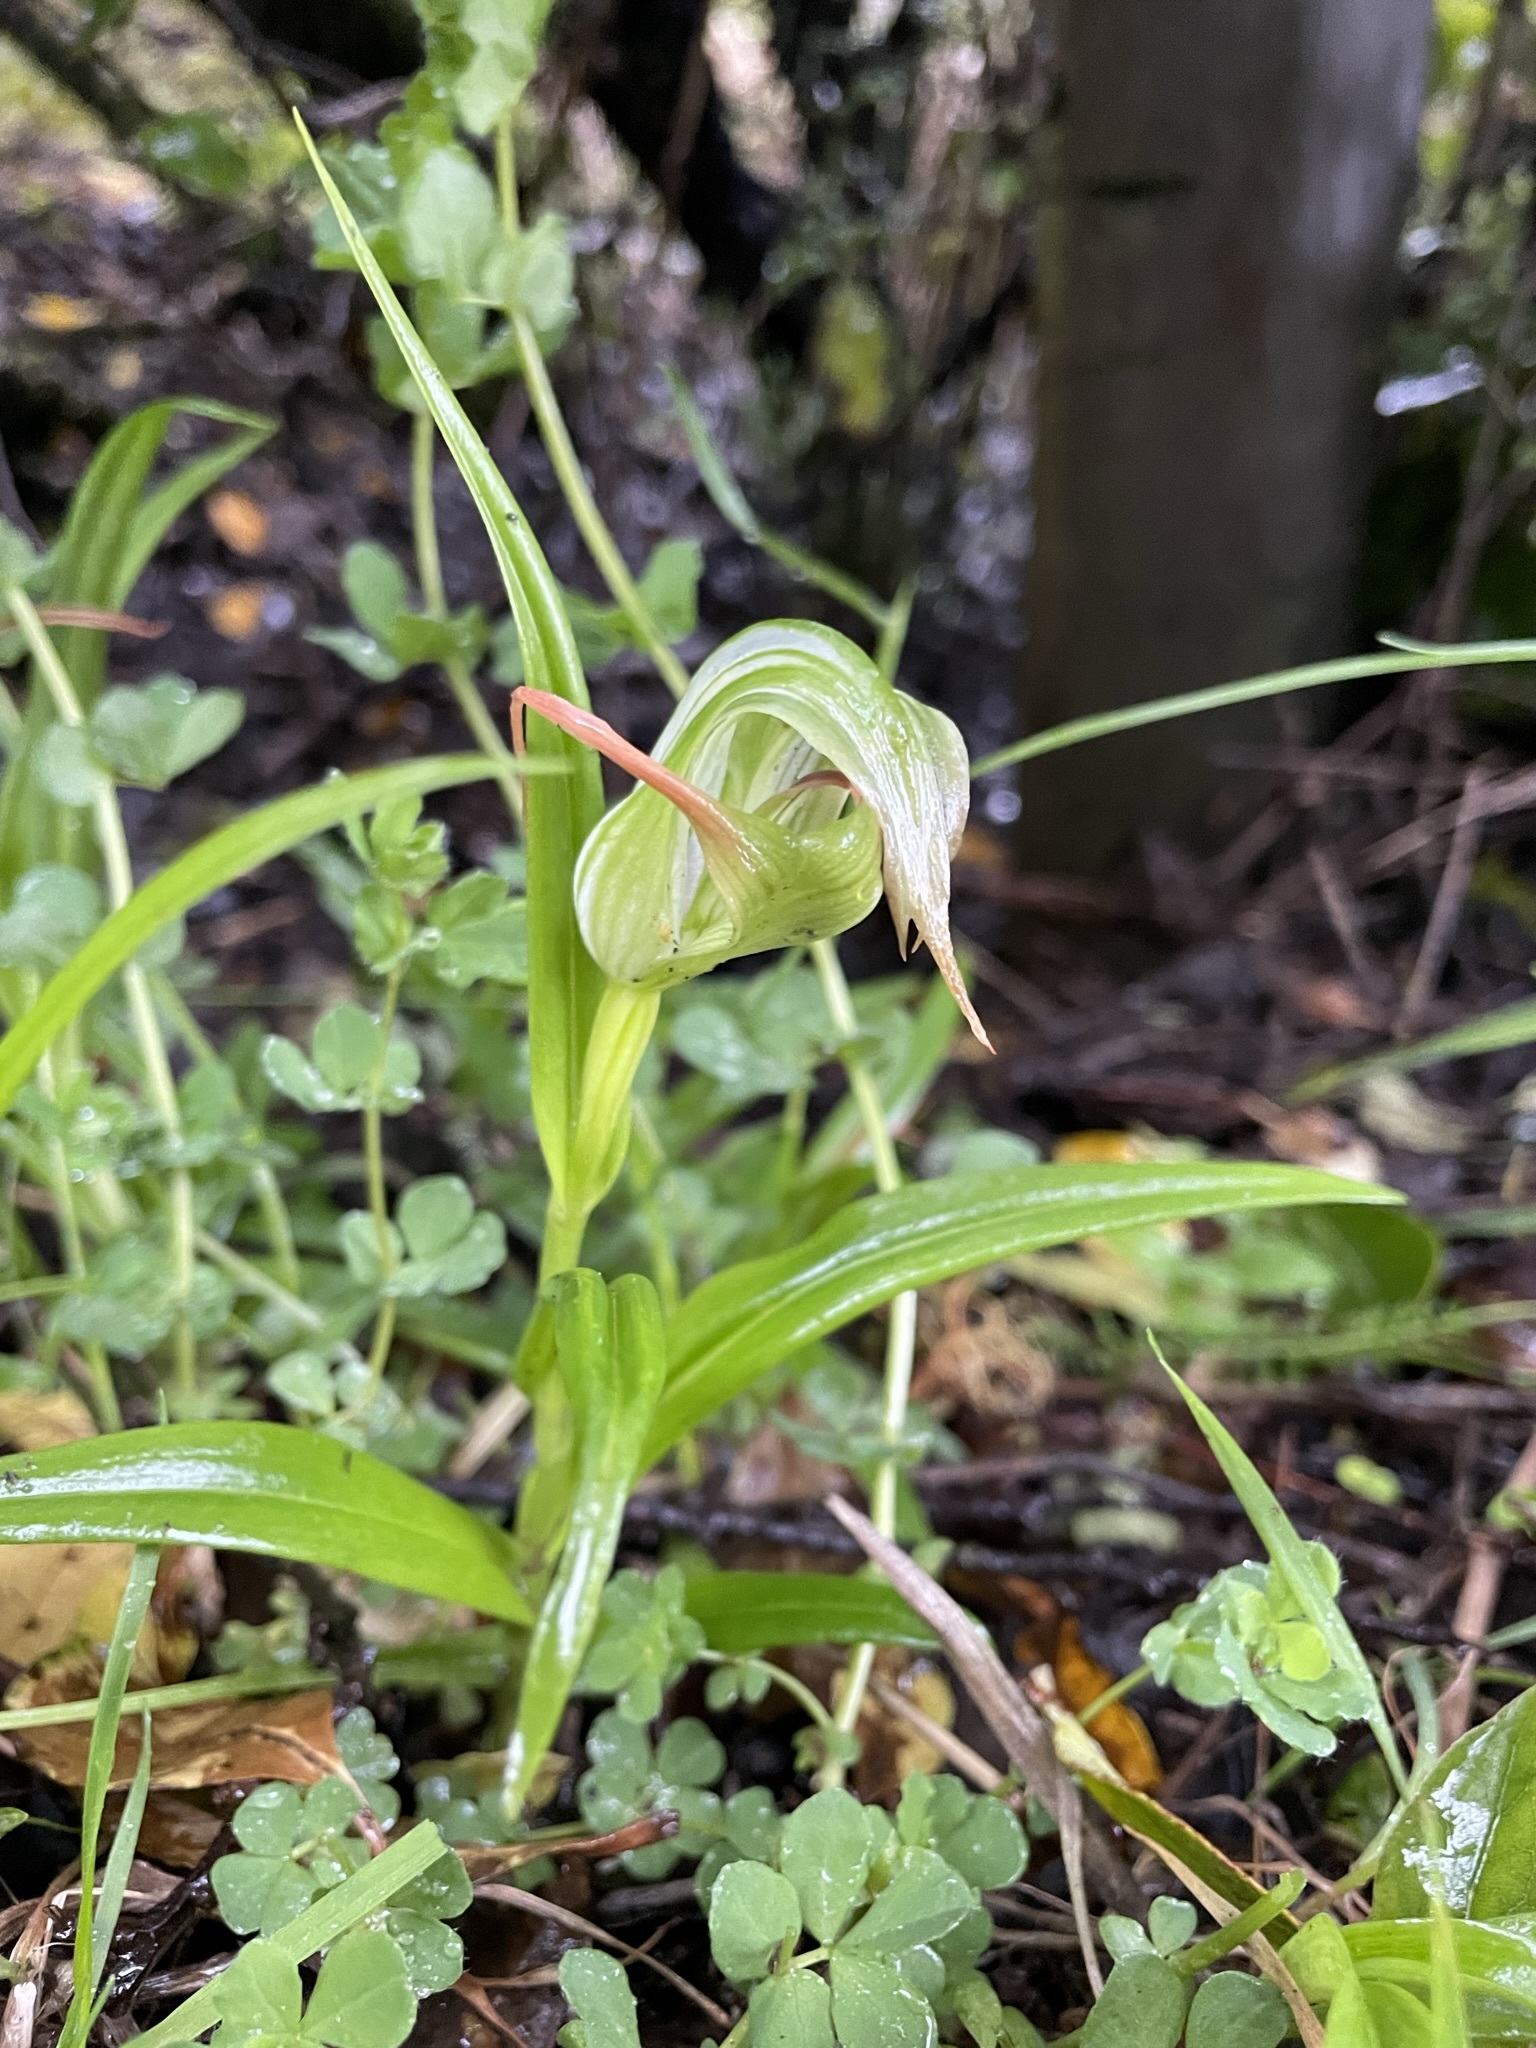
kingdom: Plantae
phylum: Tracheophyta
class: Liliopsida
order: Asparagales
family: Orchidaceae
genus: Pterostylis
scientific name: Pterostylis banksii
